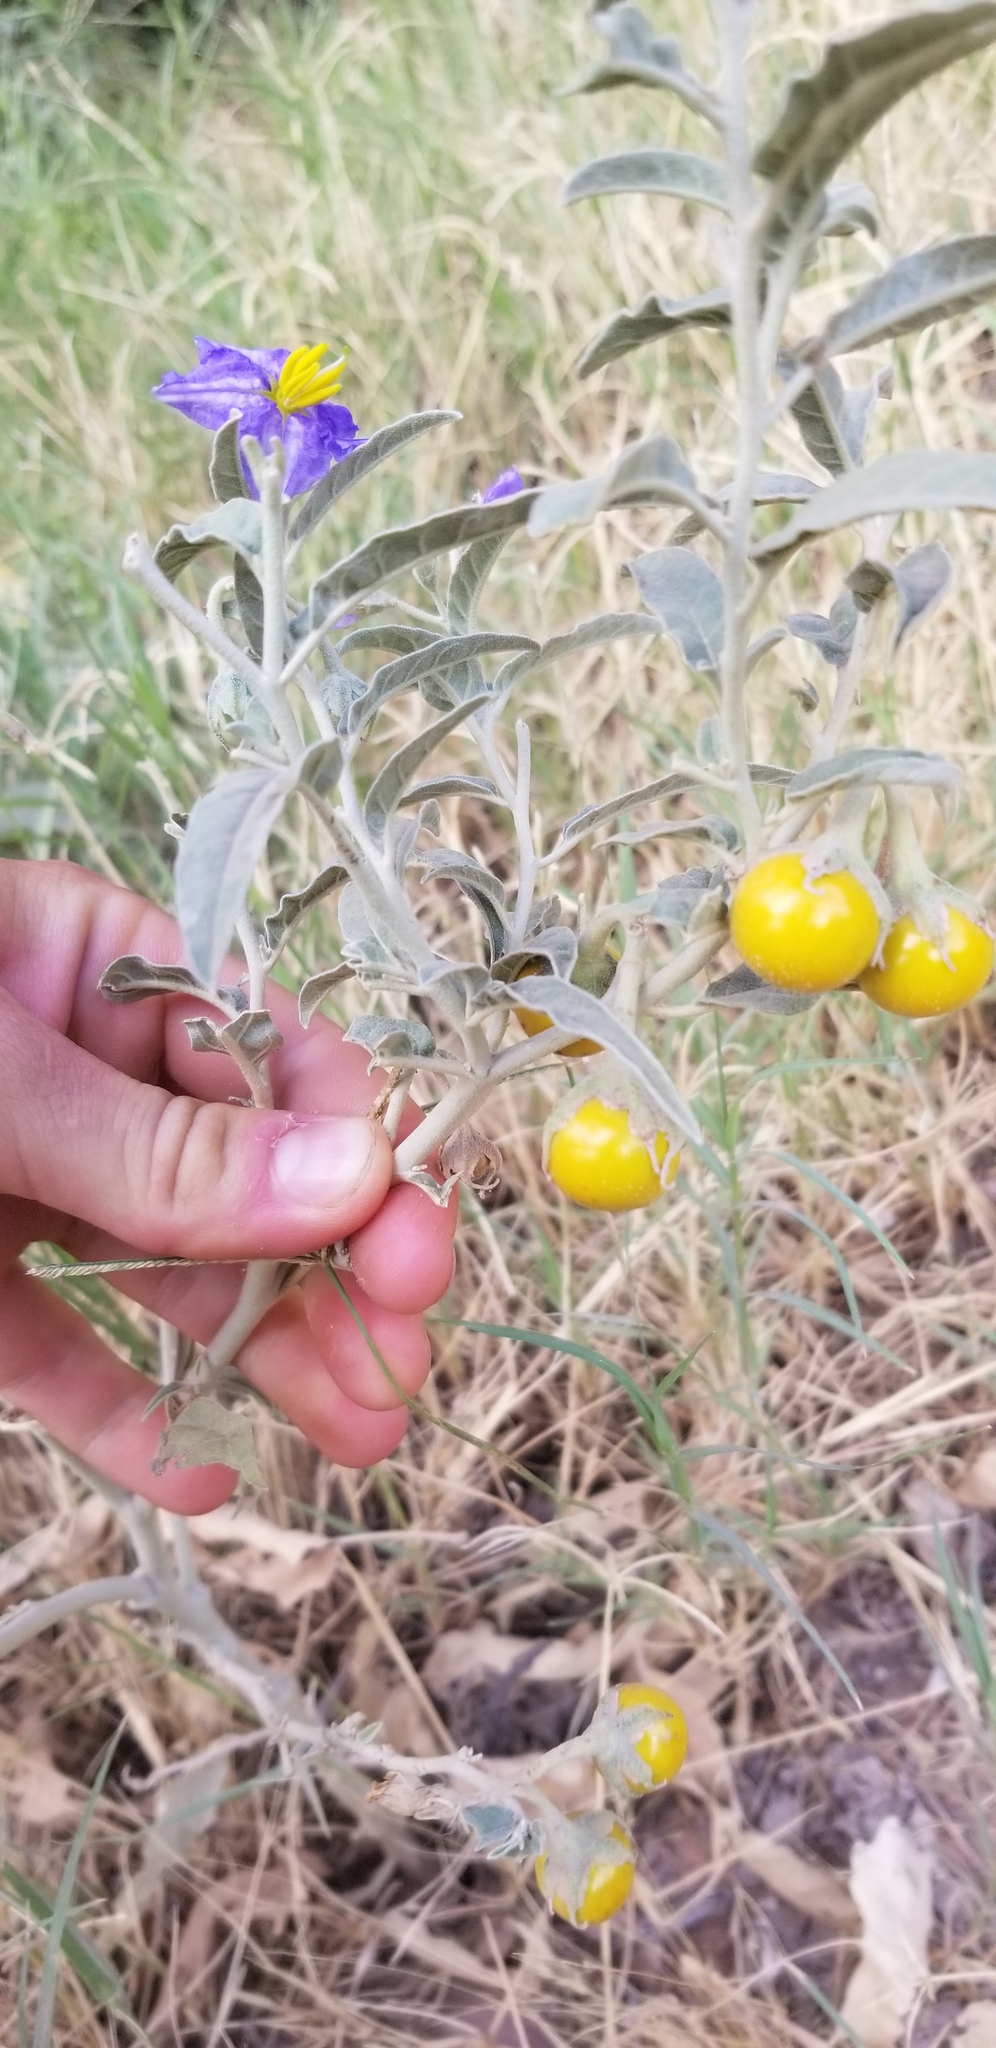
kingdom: Plantae
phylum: Tracheophyta
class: Magnoliopsida
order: Solanales
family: Solanaceae
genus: Solanum
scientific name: Solanum elaeagnifolium
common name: Silverleaf nightshade
